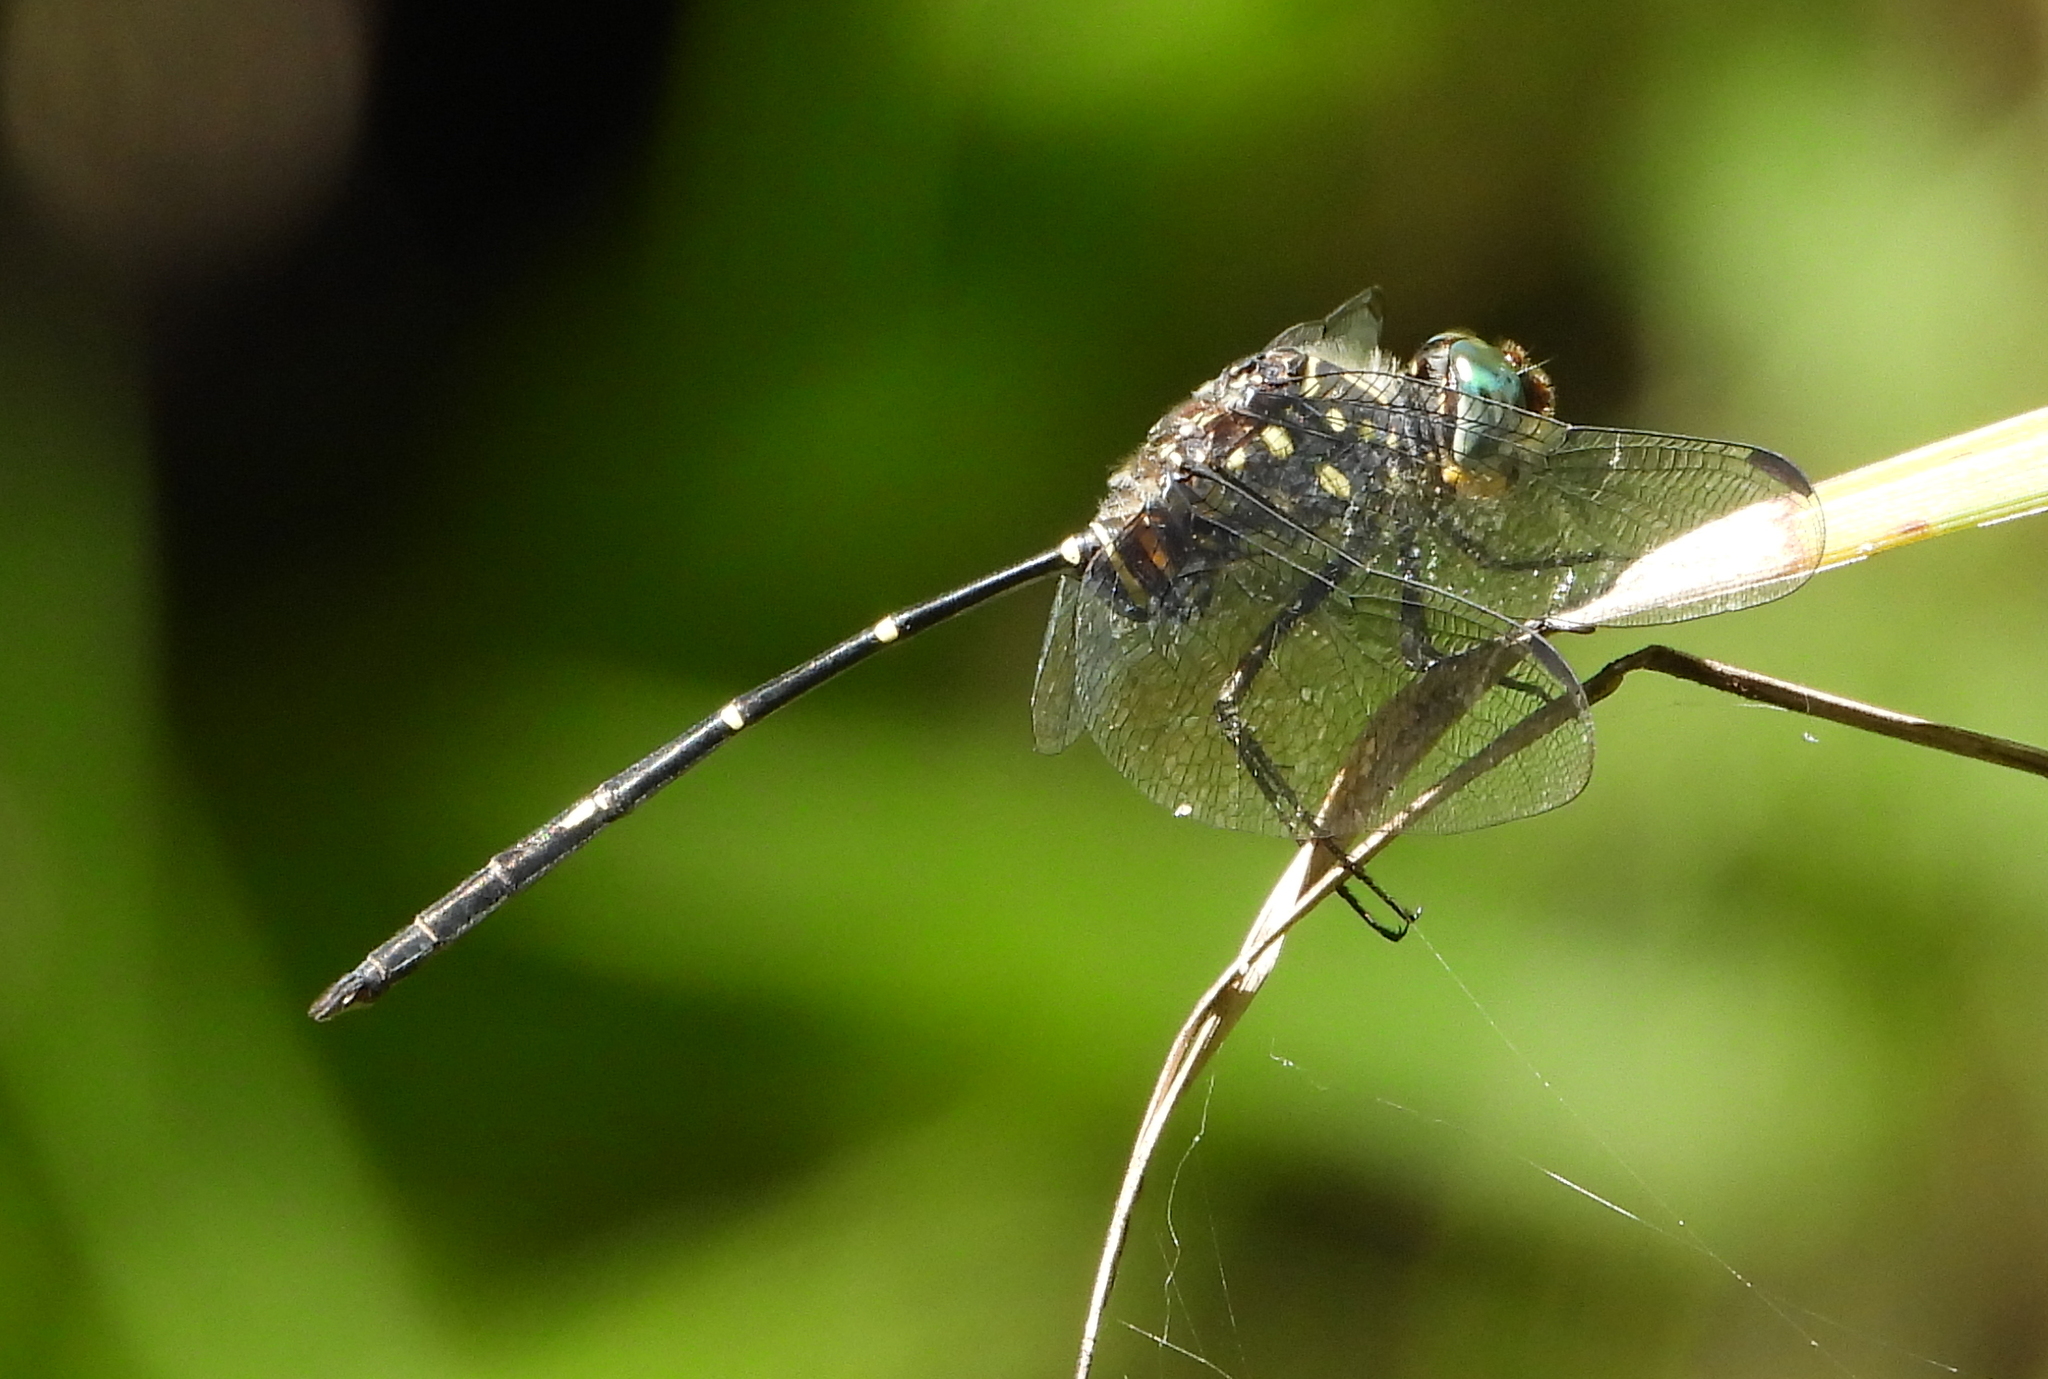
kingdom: Animalia
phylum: Arthropoda
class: Insecta
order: Odonata
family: Libellulidae
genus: Olpogastra
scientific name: Olpogastra lugubris
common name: Bottletail
